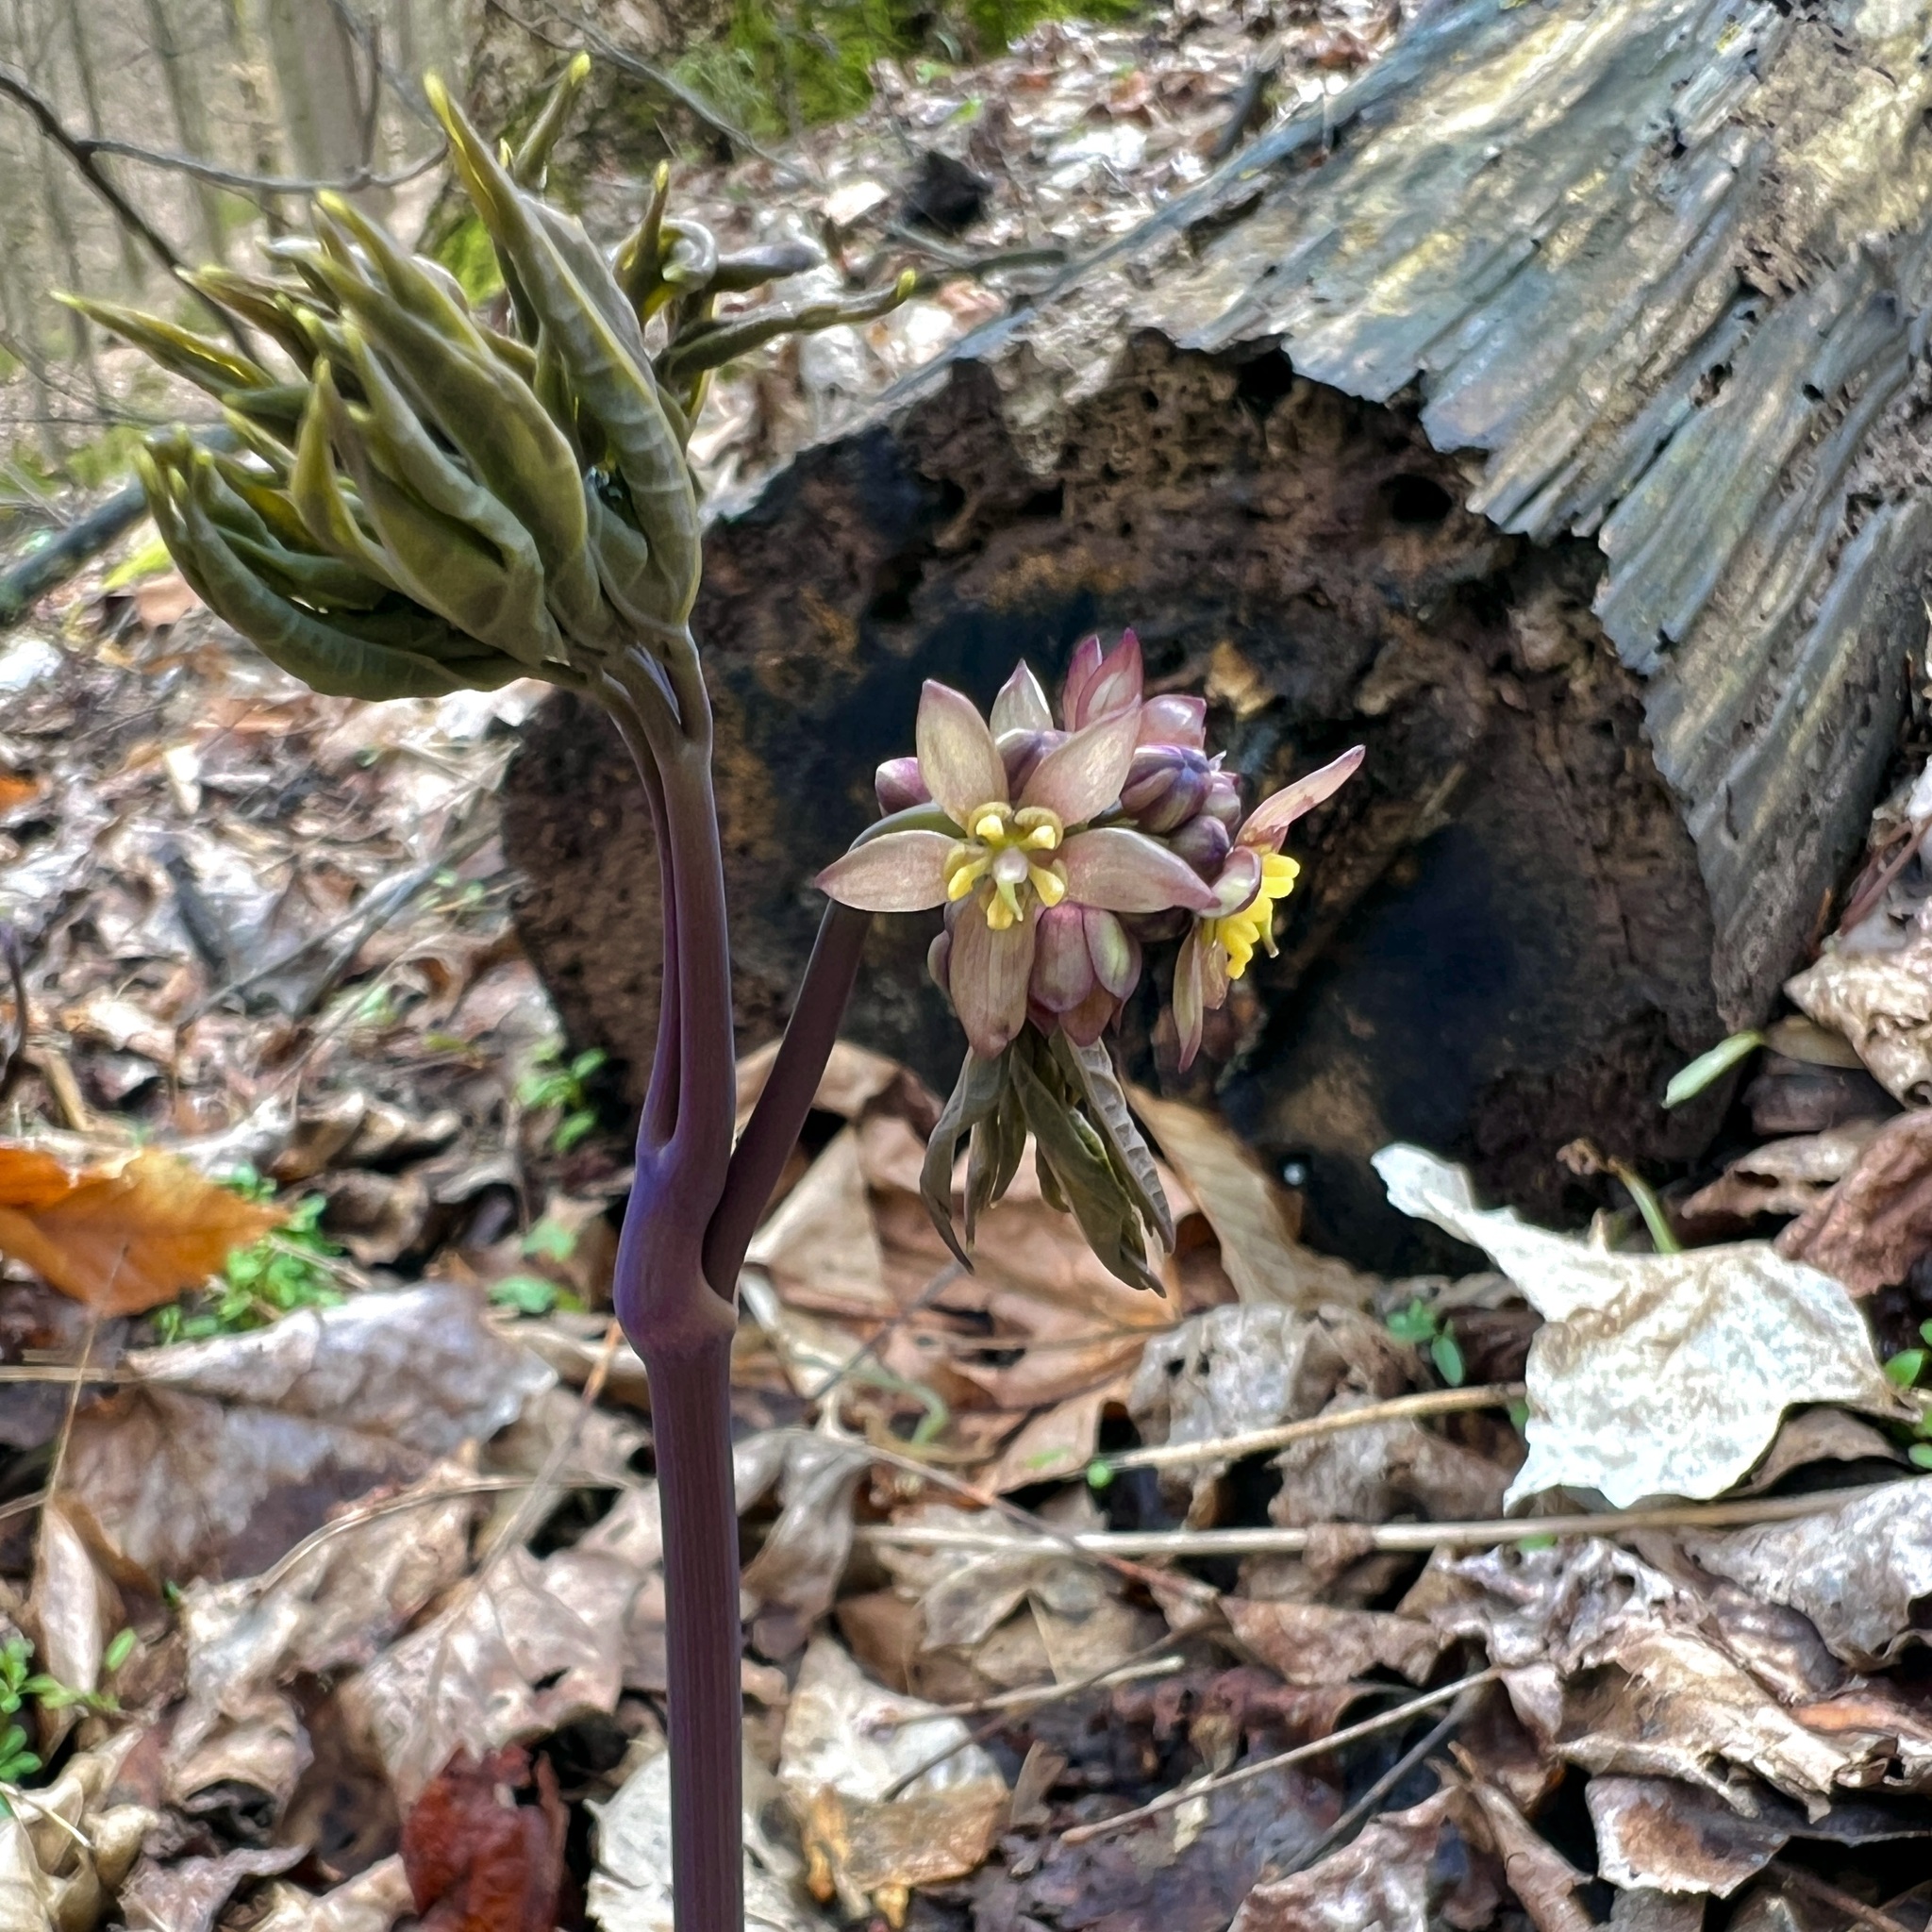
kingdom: Plantae
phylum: Tracheophyta
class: Magnoliopsida
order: Ranunculales
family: Berberidaceae
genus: Caulophyllum
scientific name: Caulophyllum giganteum
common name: Blue cohosh
